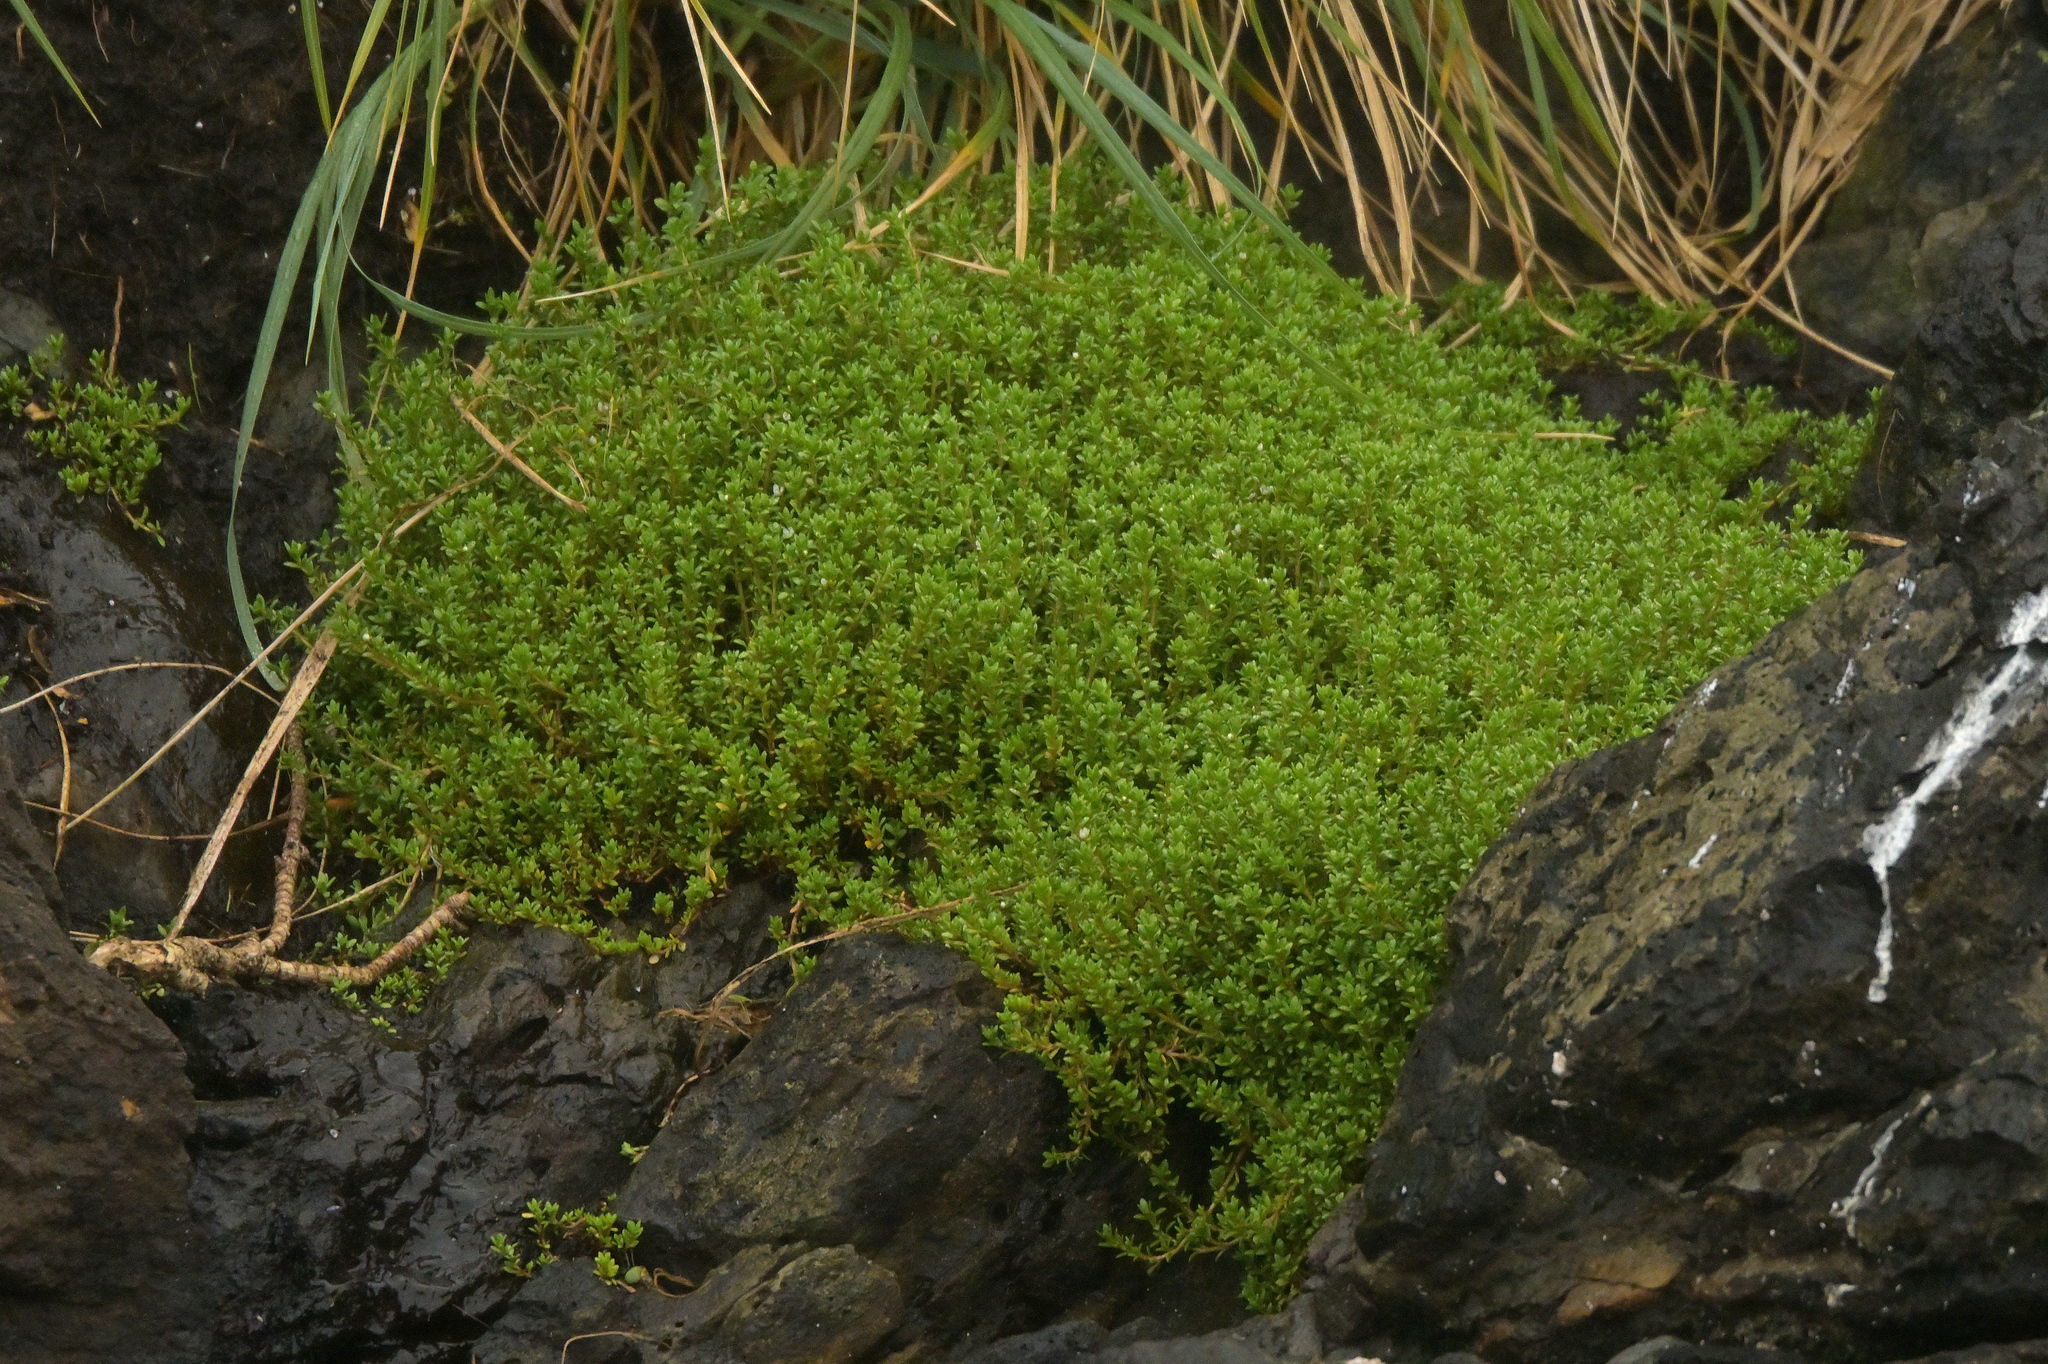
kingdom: Plantae
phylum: Tracheophyta
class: Magnoliopsida
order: Saxifragales
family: Crassulaceae
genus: Crassula
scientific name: Crassula moschata
